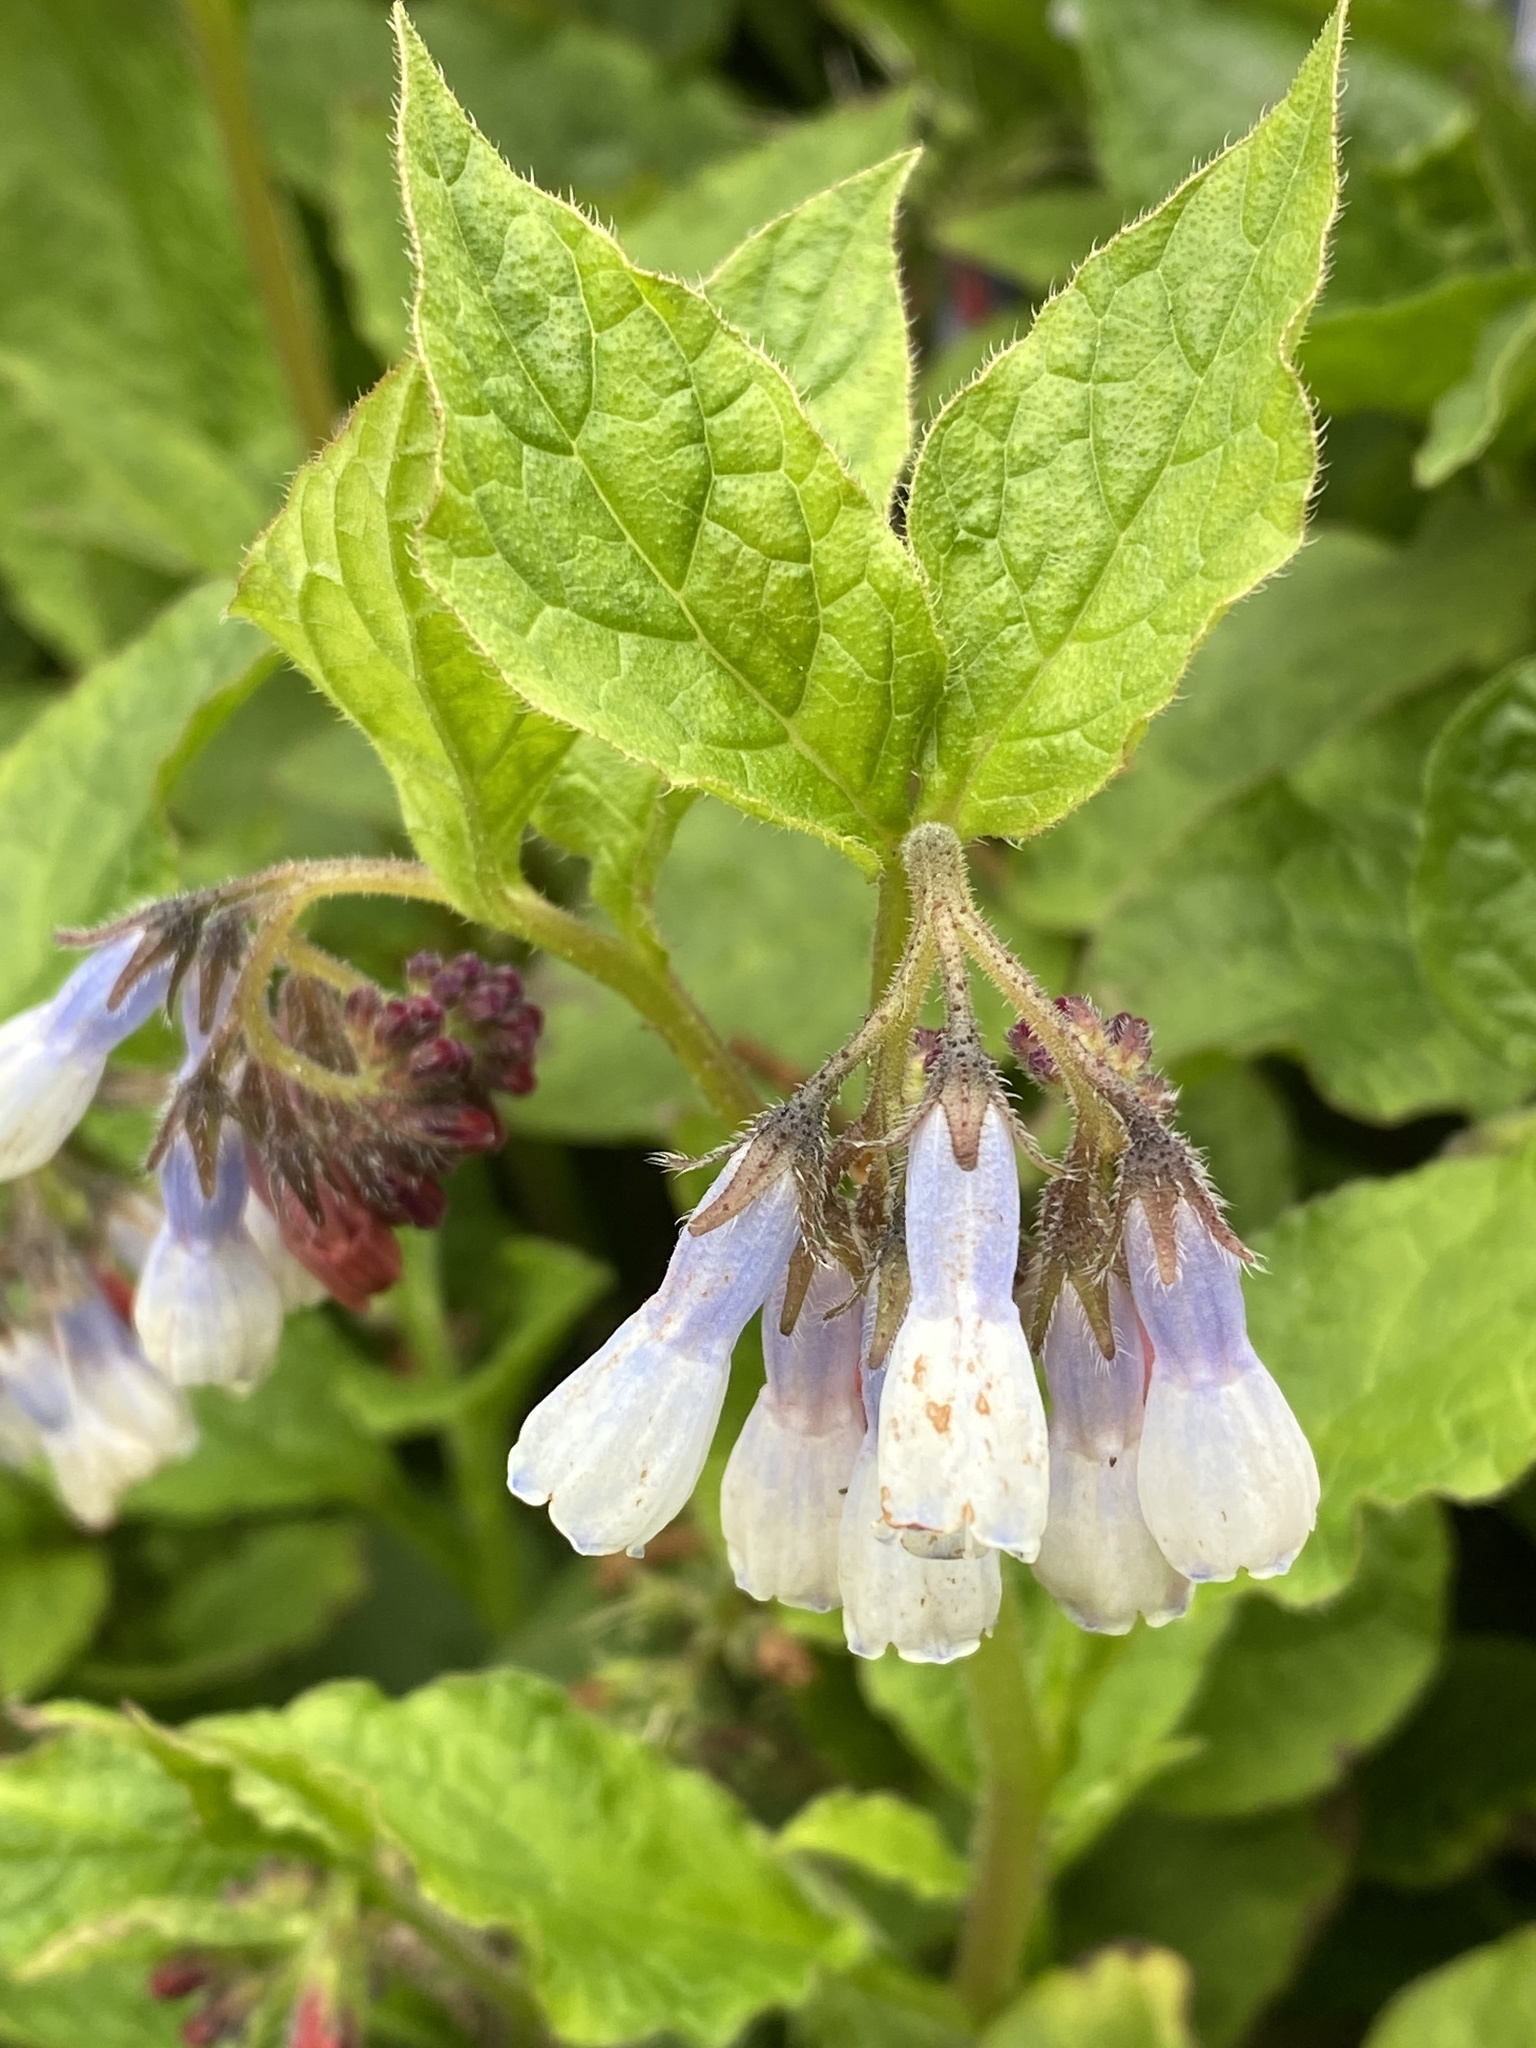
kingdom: Plantae
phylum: Tracheophyta
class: Magnoliopsida
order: Boraginales
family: Boraginaceae
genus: Symphytum
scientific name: Symphytum hidcotense
